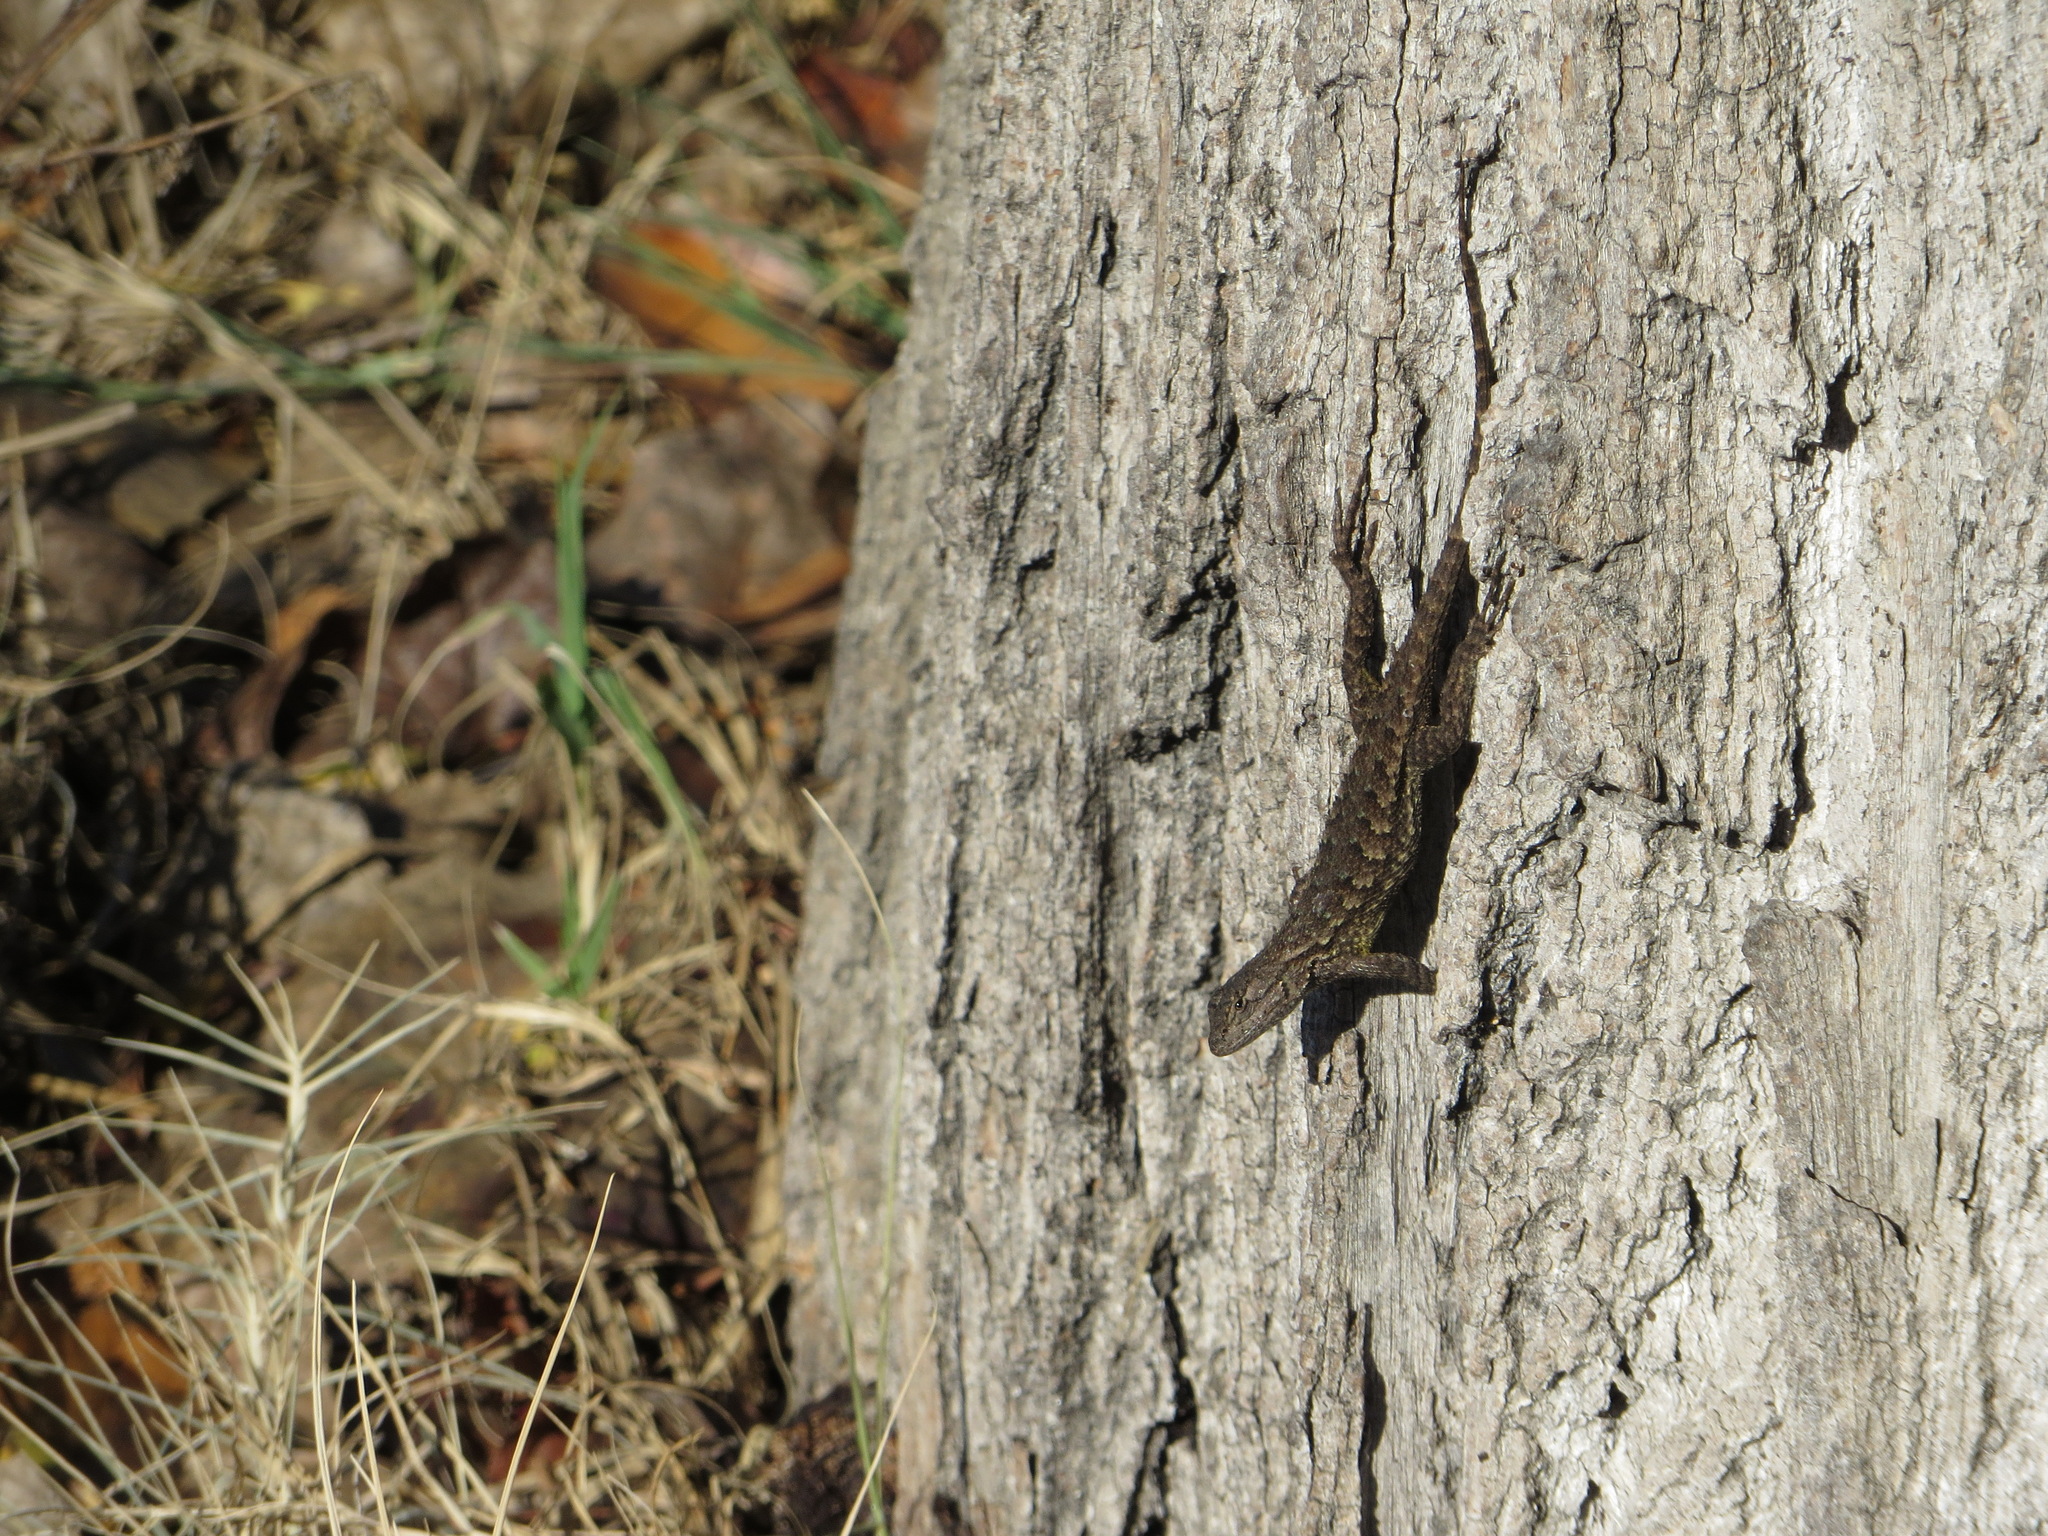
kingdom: Animalia
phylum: Chordata
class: Squamata
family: Phrynosomatidae
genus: Sceloporus
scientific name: Sceloporus occidentalis
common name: Western fence lizard
